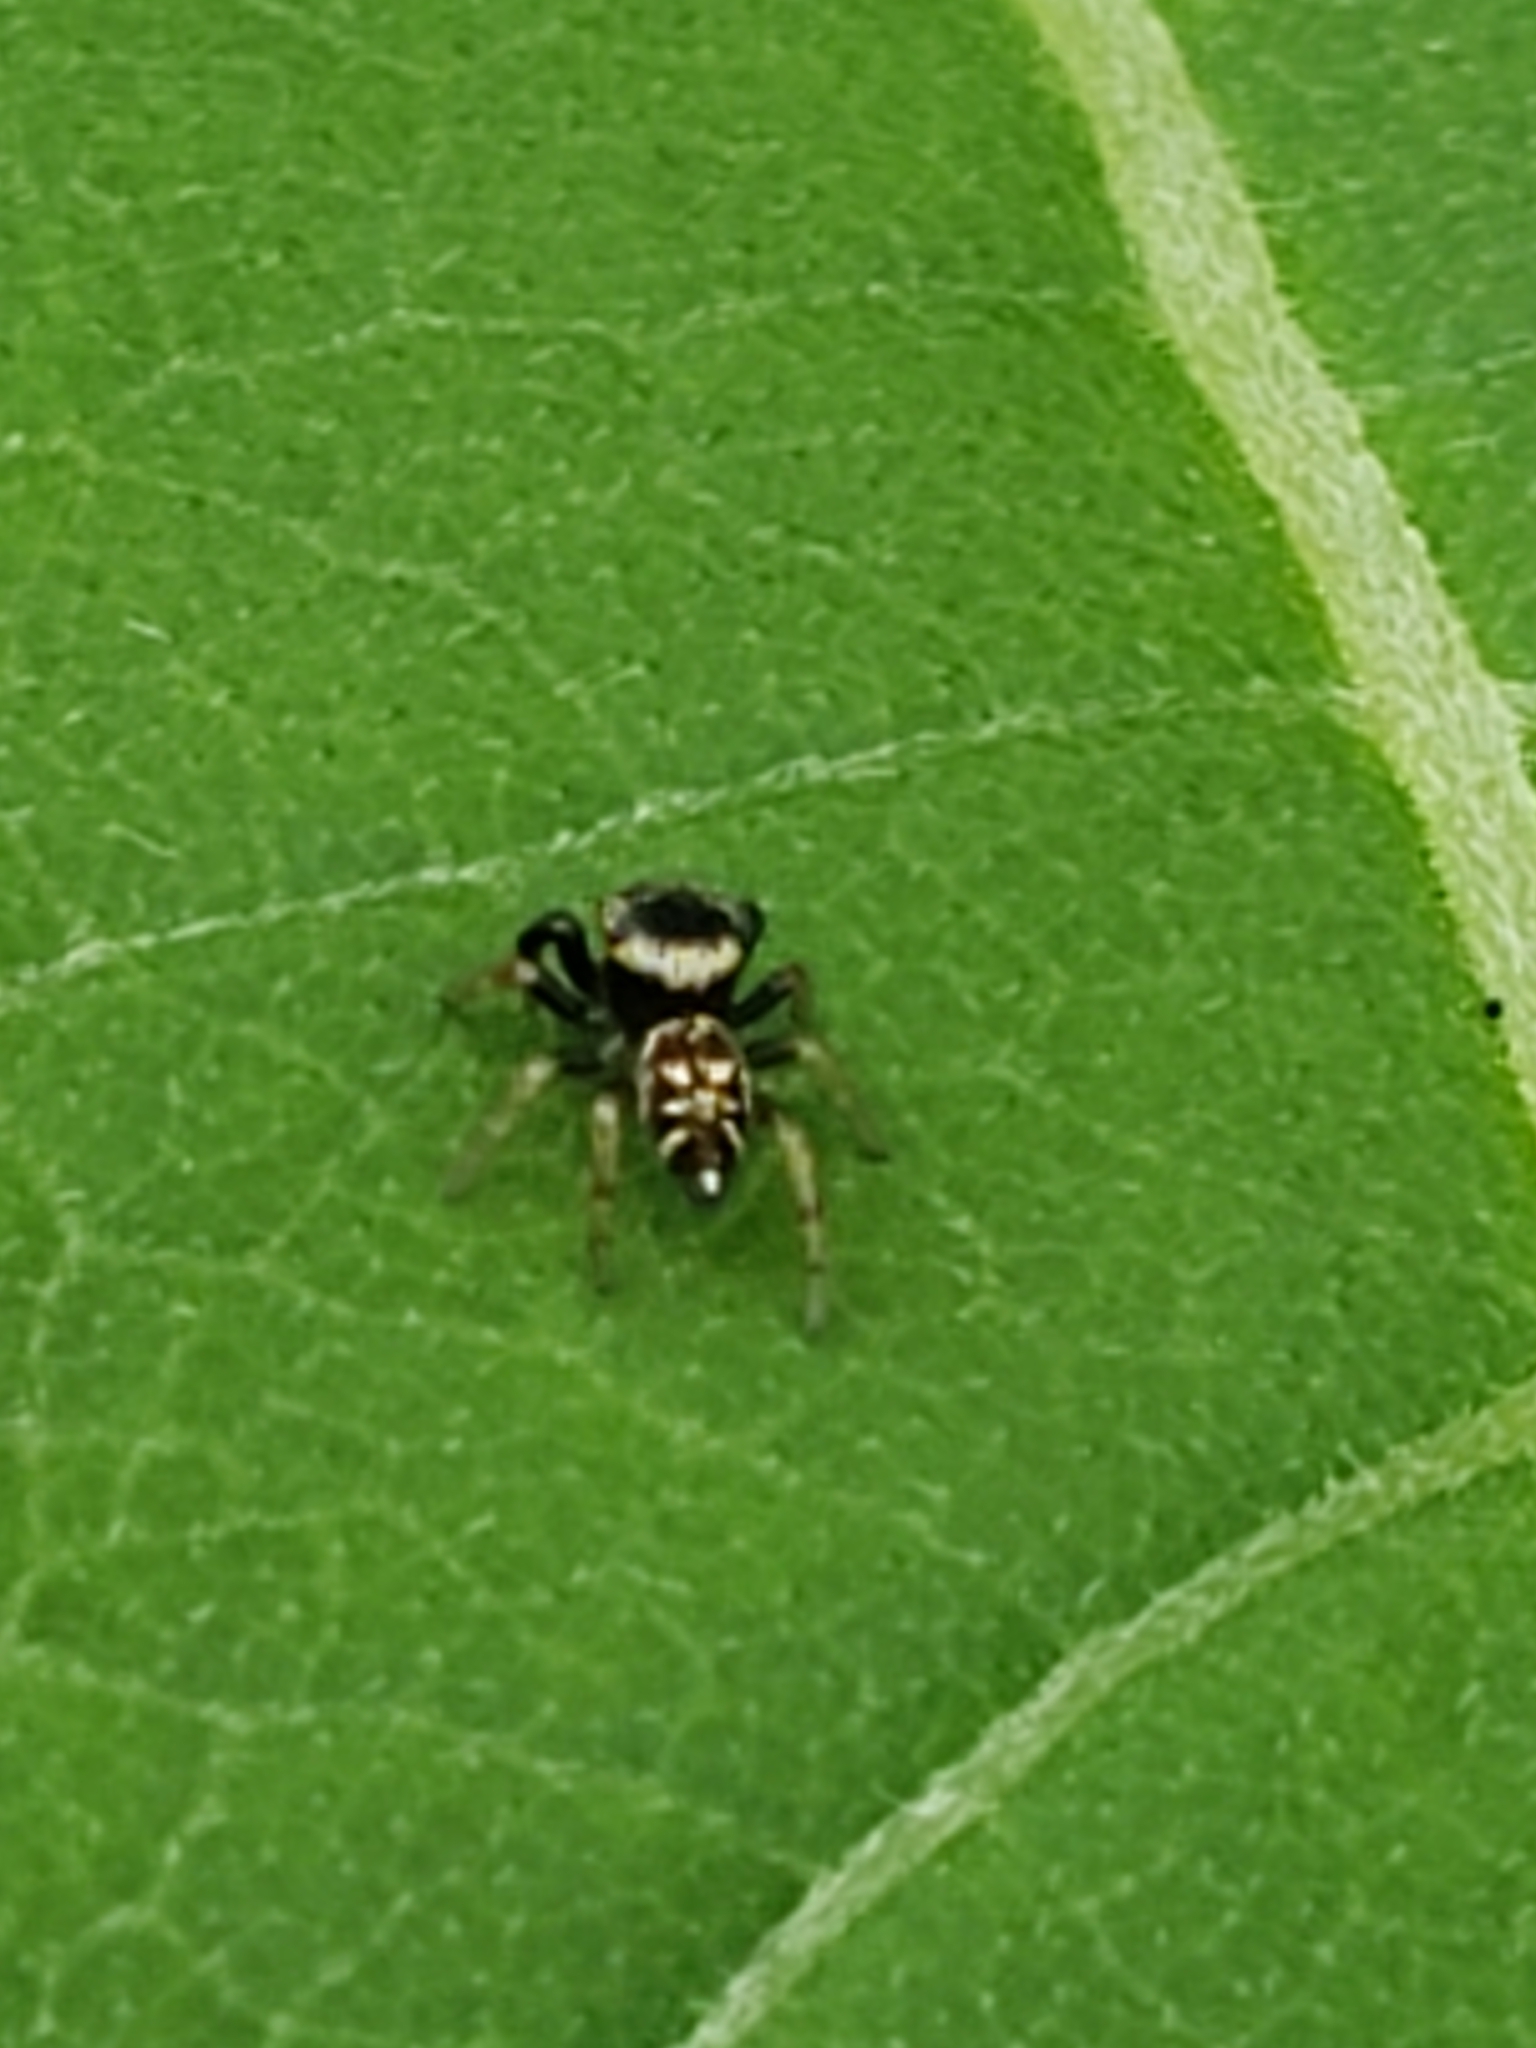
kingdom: Animalia
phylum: Arthropoda
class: Arachnida
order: Araneae
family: Salticidae
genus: Paraphidippus
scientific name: Paraphidippus aurantius
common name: Jumping spiders
